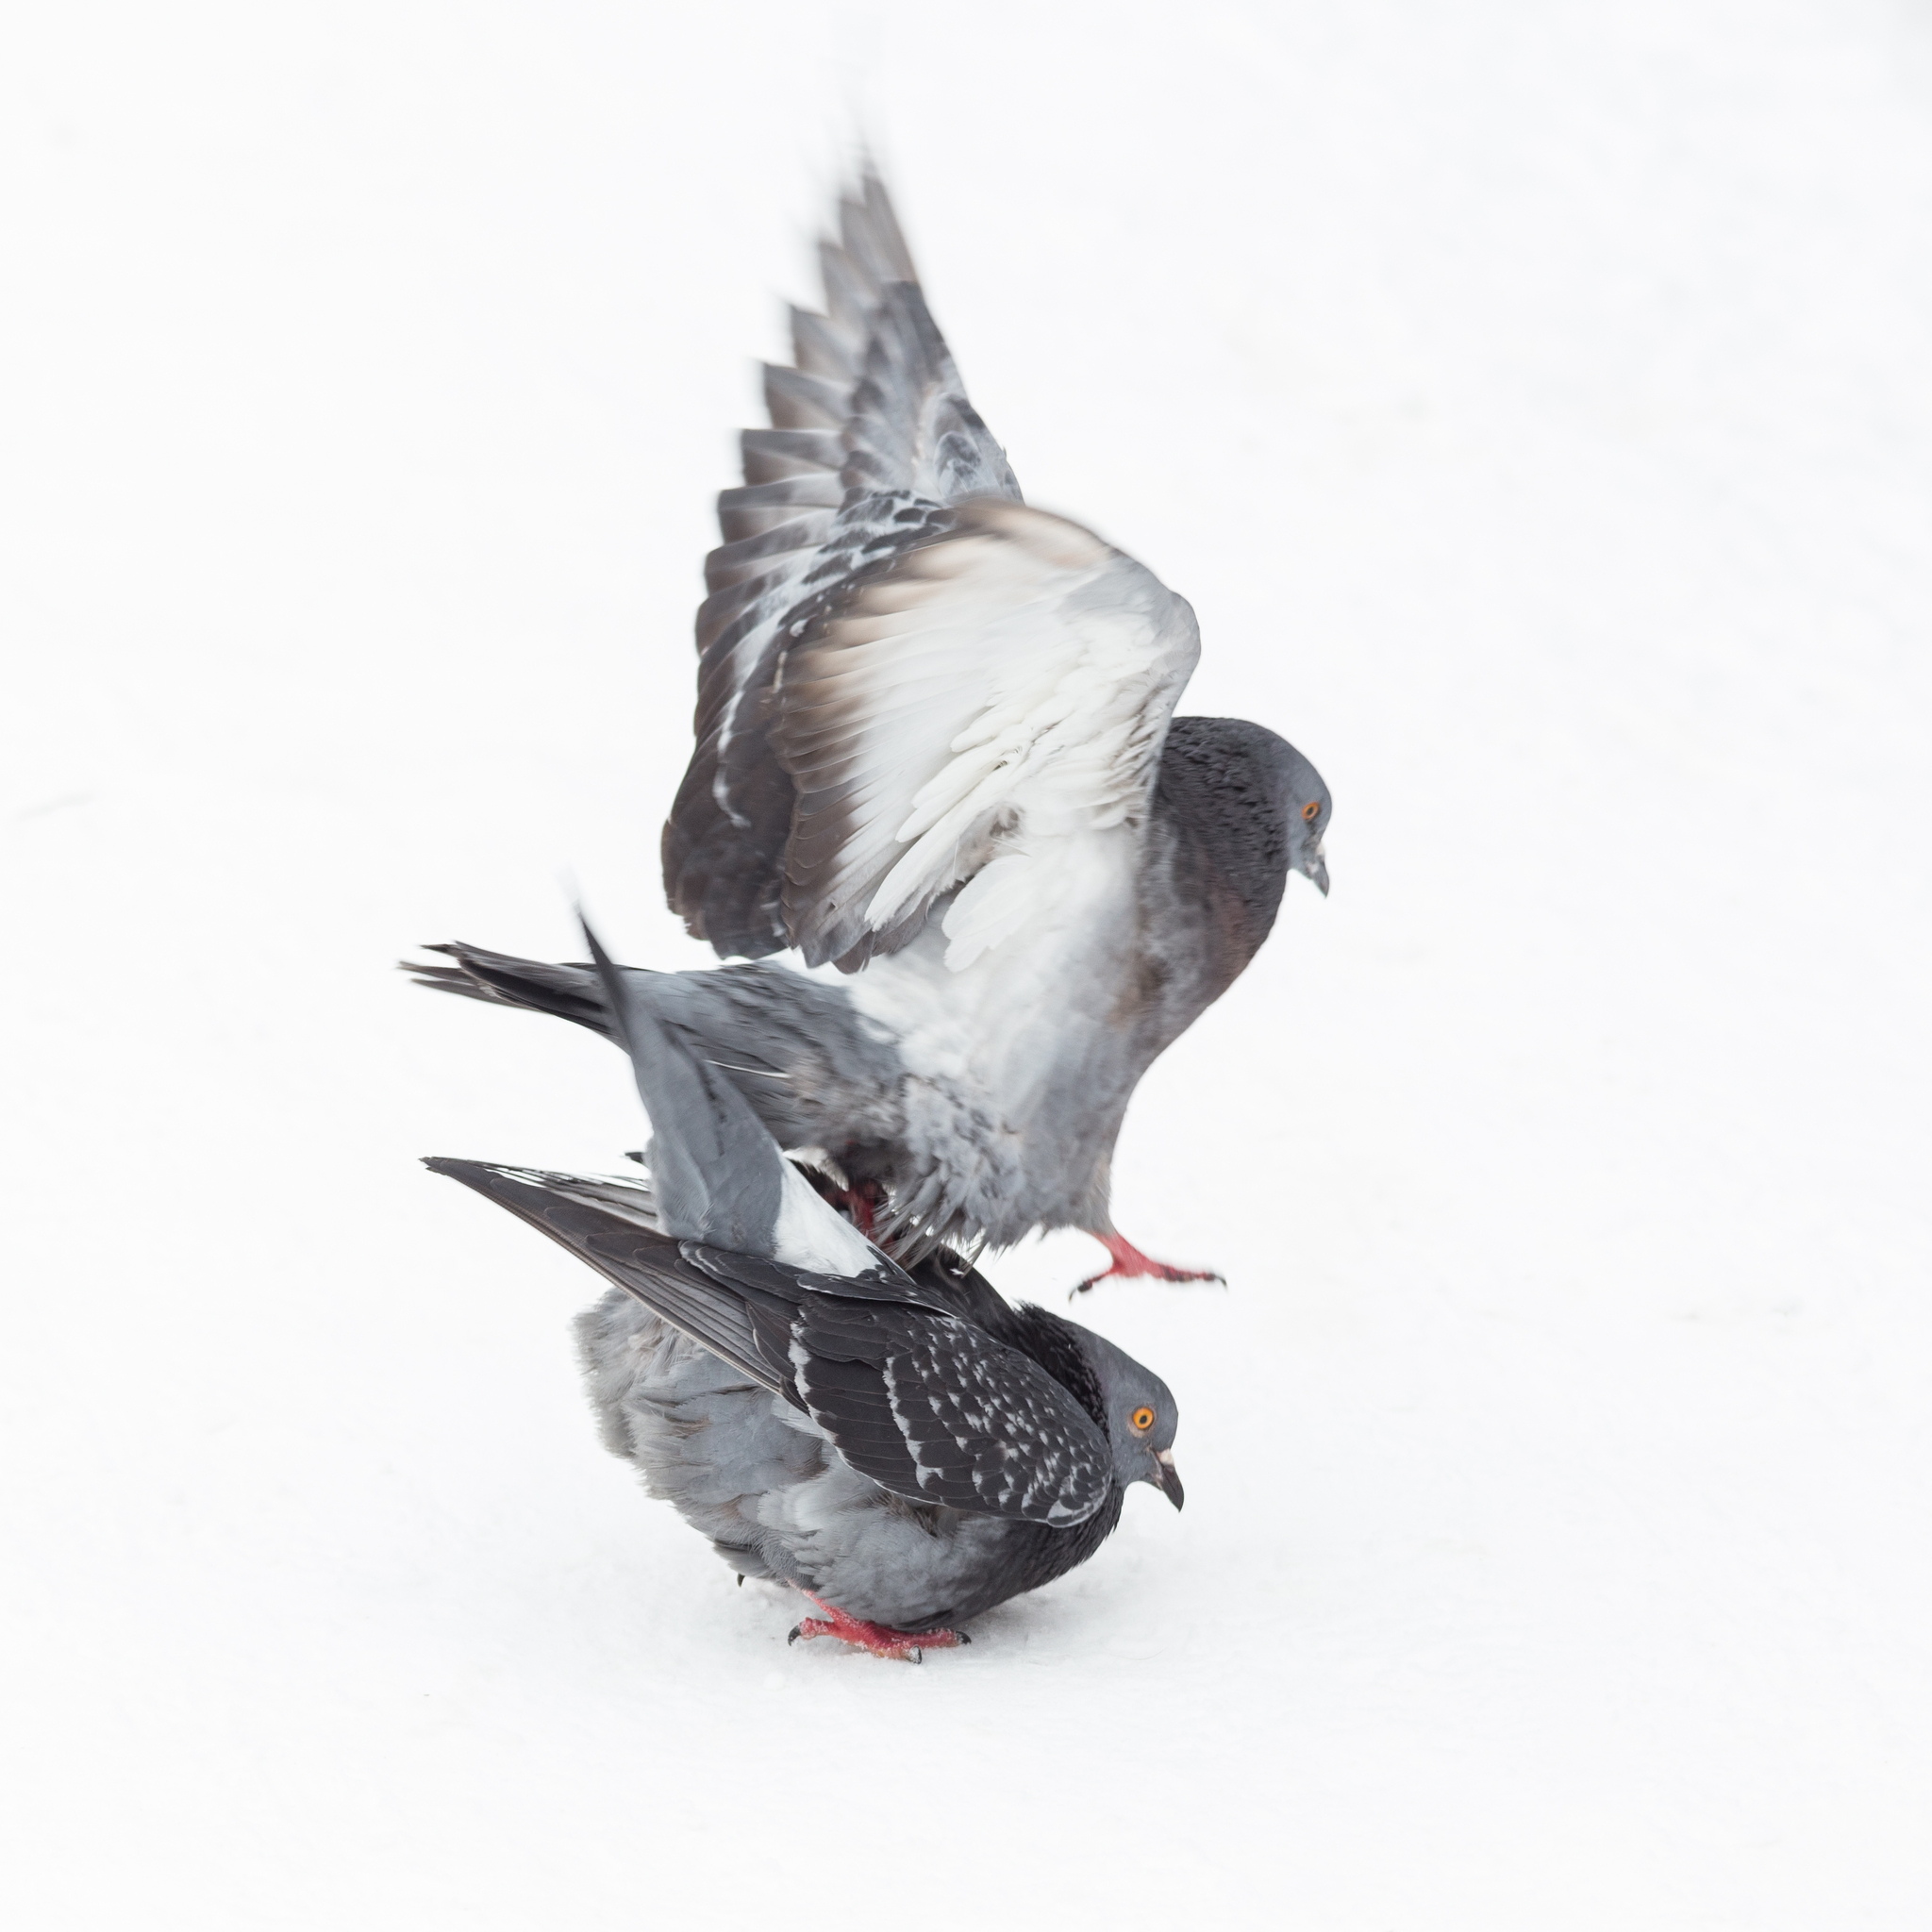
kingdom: Animalia
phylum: Chordata
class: Aves
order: Columbiformes
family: Columbidae
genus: Columba
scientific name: Columba livia
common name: Rock pigeon
